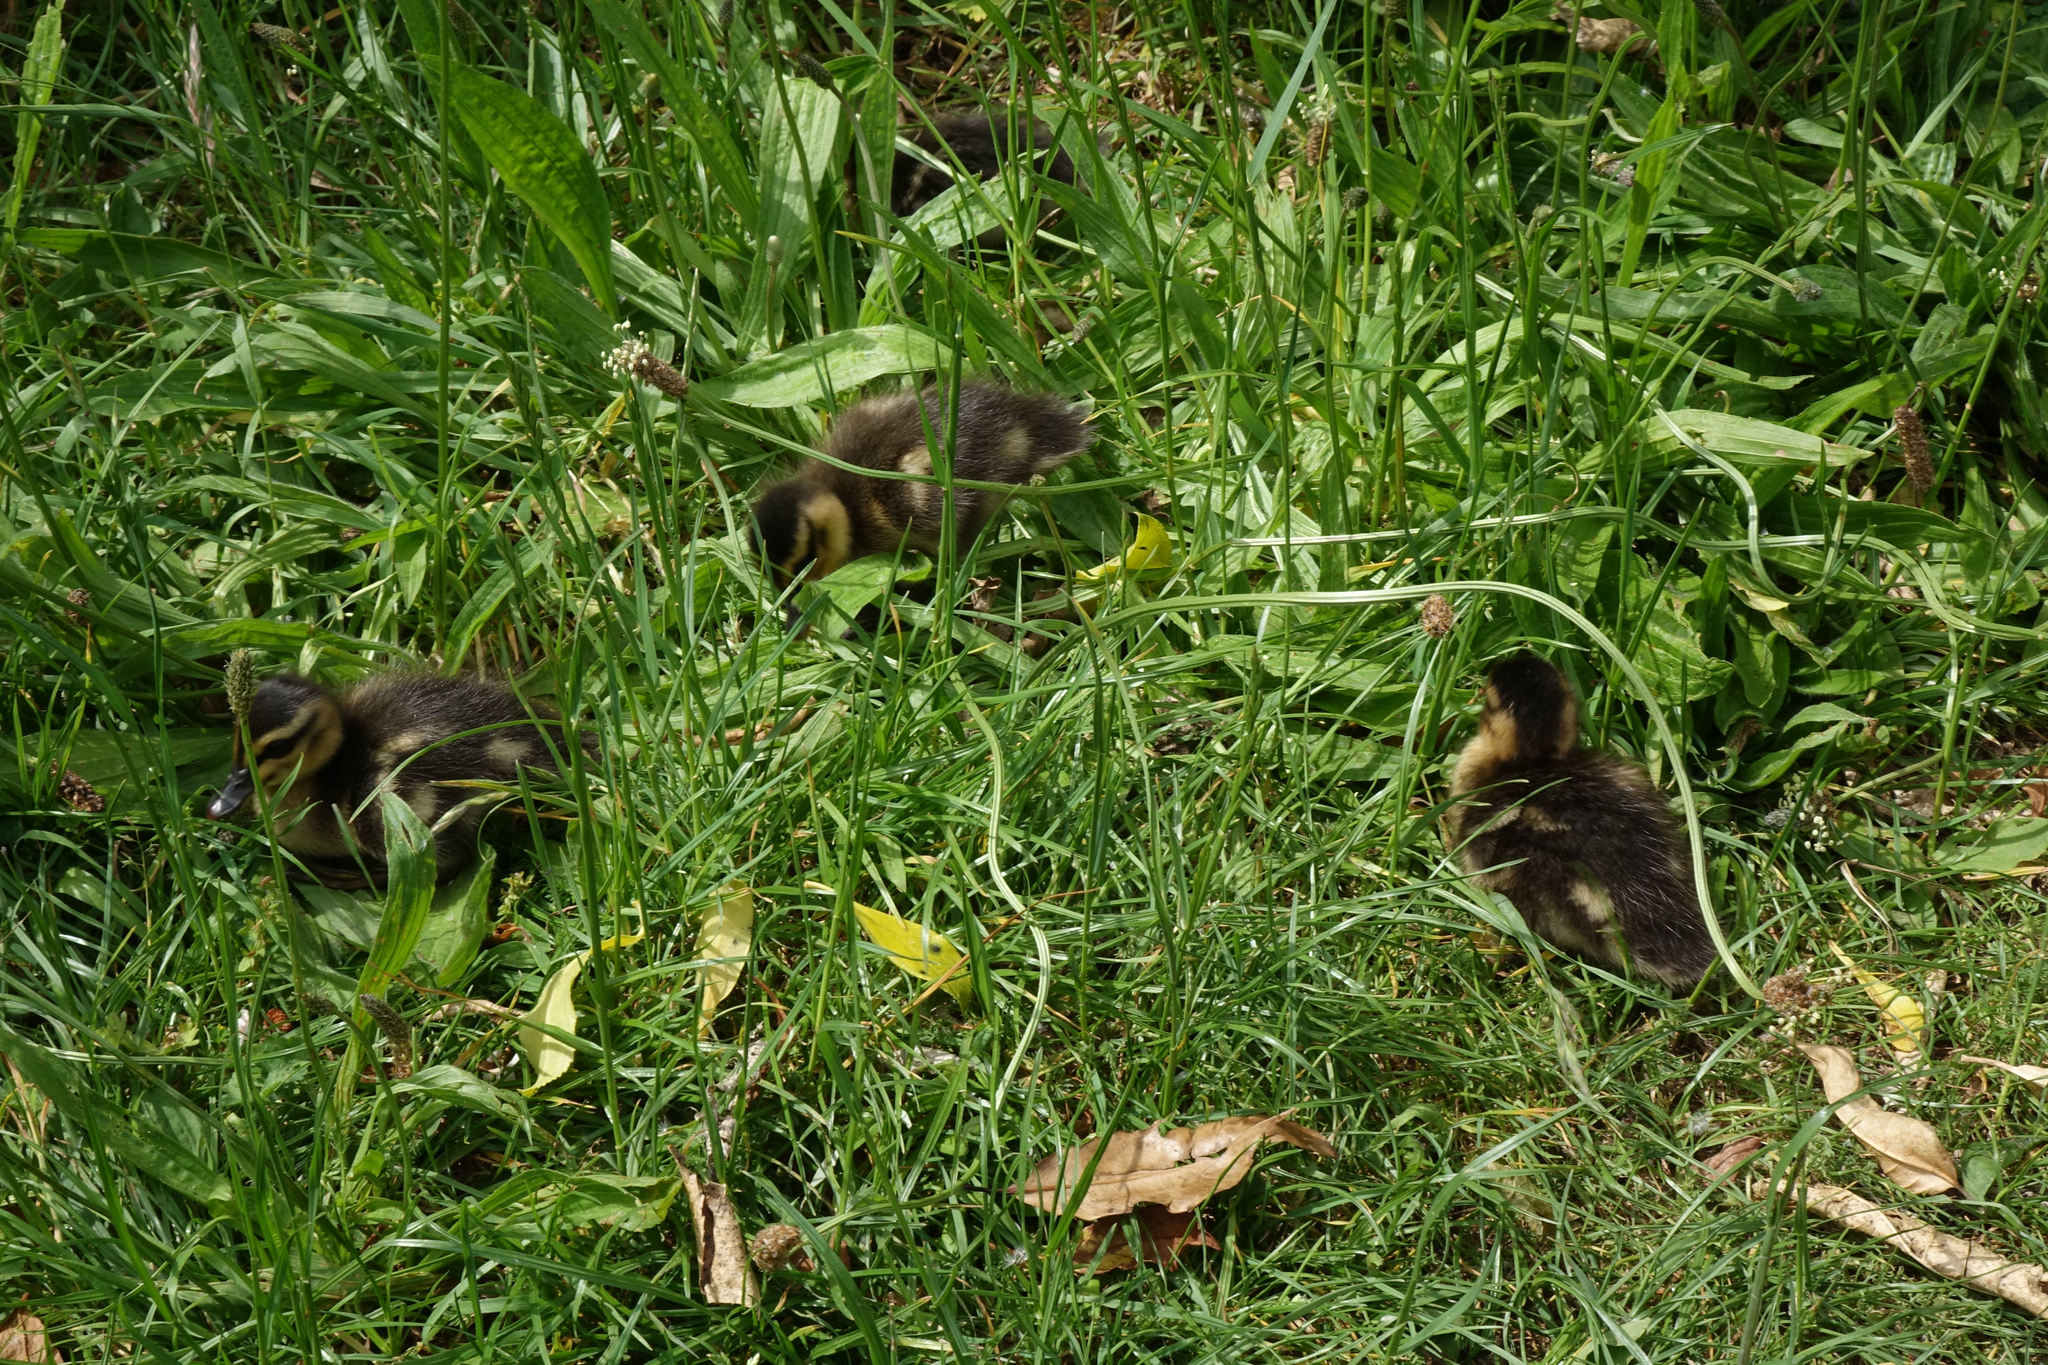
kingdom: Animalia
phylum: Chordata
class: Aves
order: Anseriformes
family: Anatidae
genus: Anas
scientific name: Anas
